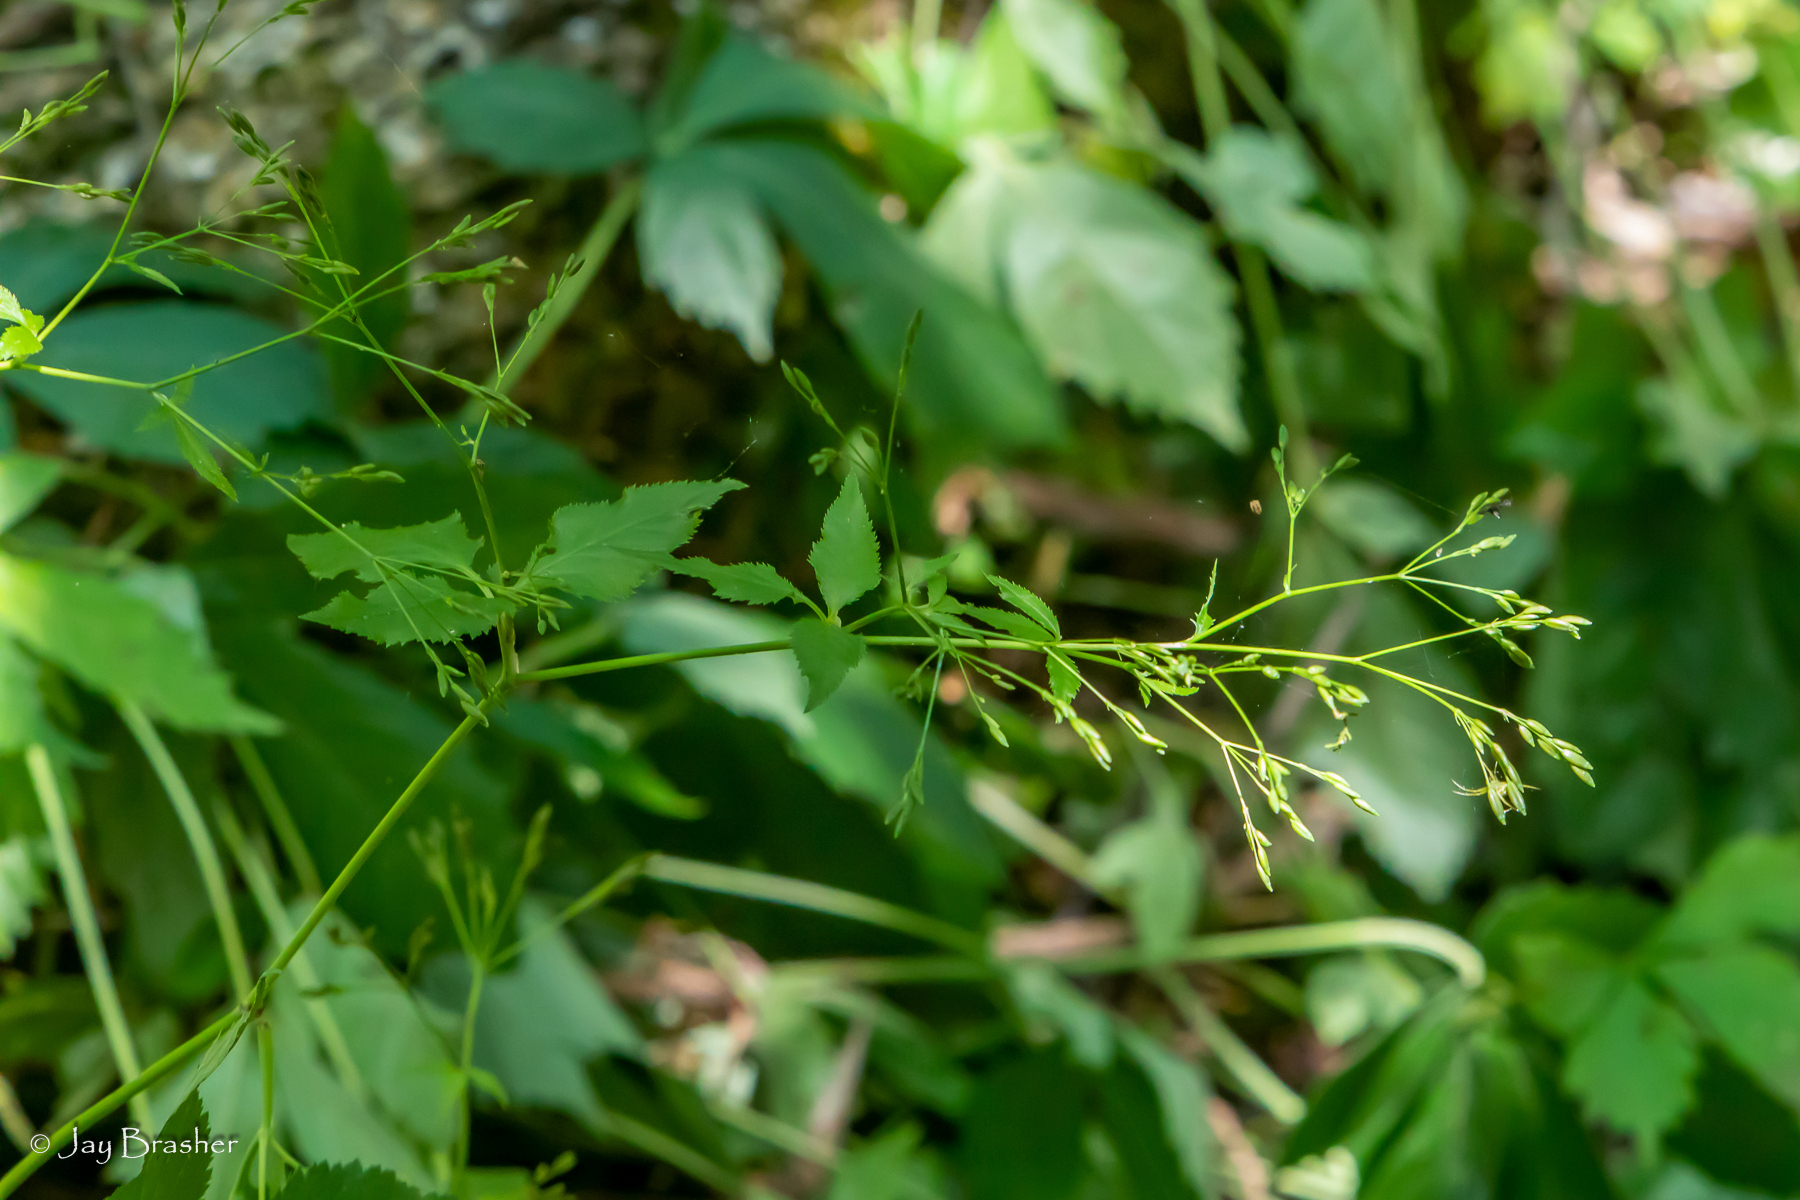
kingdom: Plantae
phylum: Tracheophyta
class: Magnoliopsida
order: Apiales
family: Apiaceae
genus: Cryptotaenia
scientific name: Cryptotaenia canadensis
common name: Honewort
